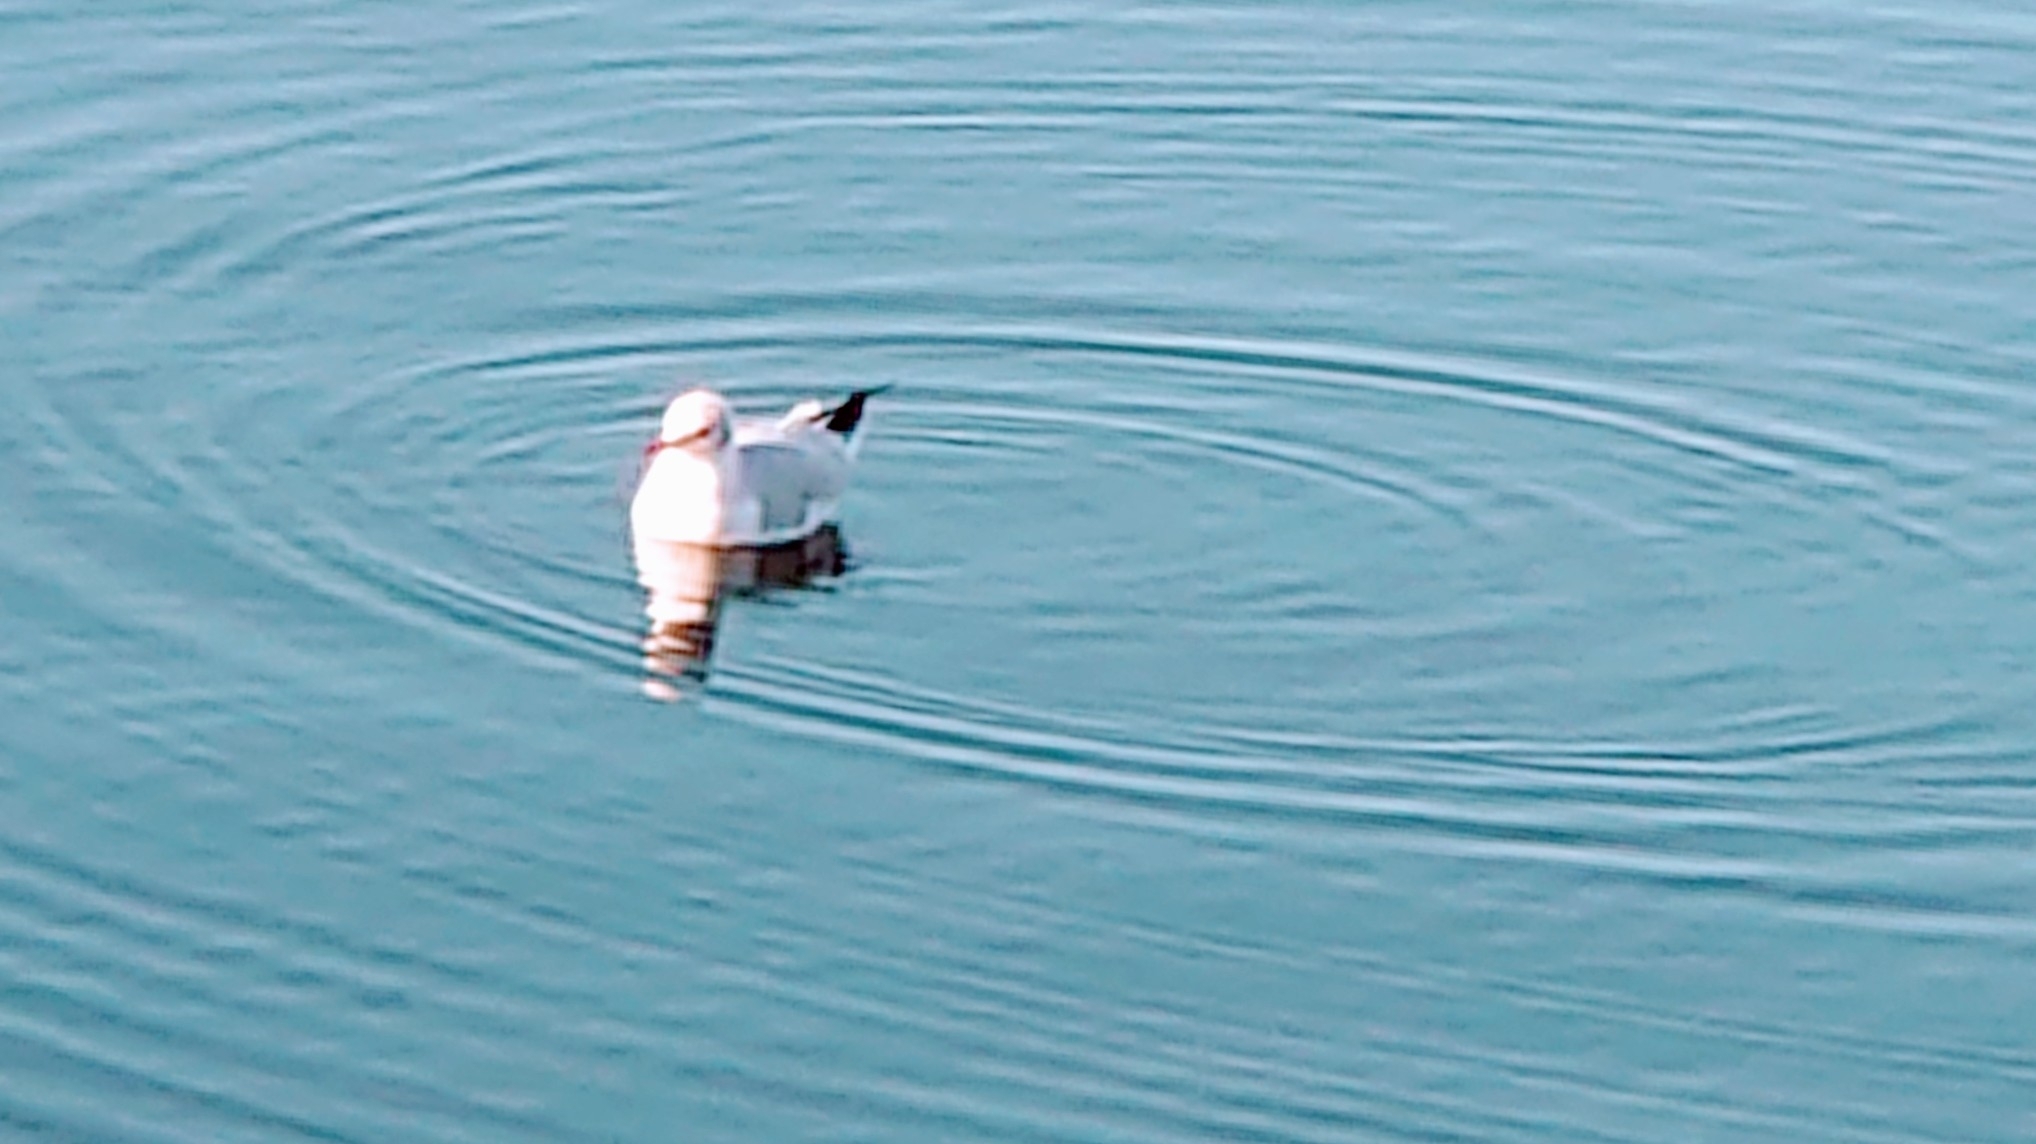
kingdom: Animalia
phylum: Chordata
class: Aves
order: Charadriiformes
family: Laridae
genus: Chroicocephalus
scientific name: Chroicocephalus ridibundus
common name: Black-headed gull
